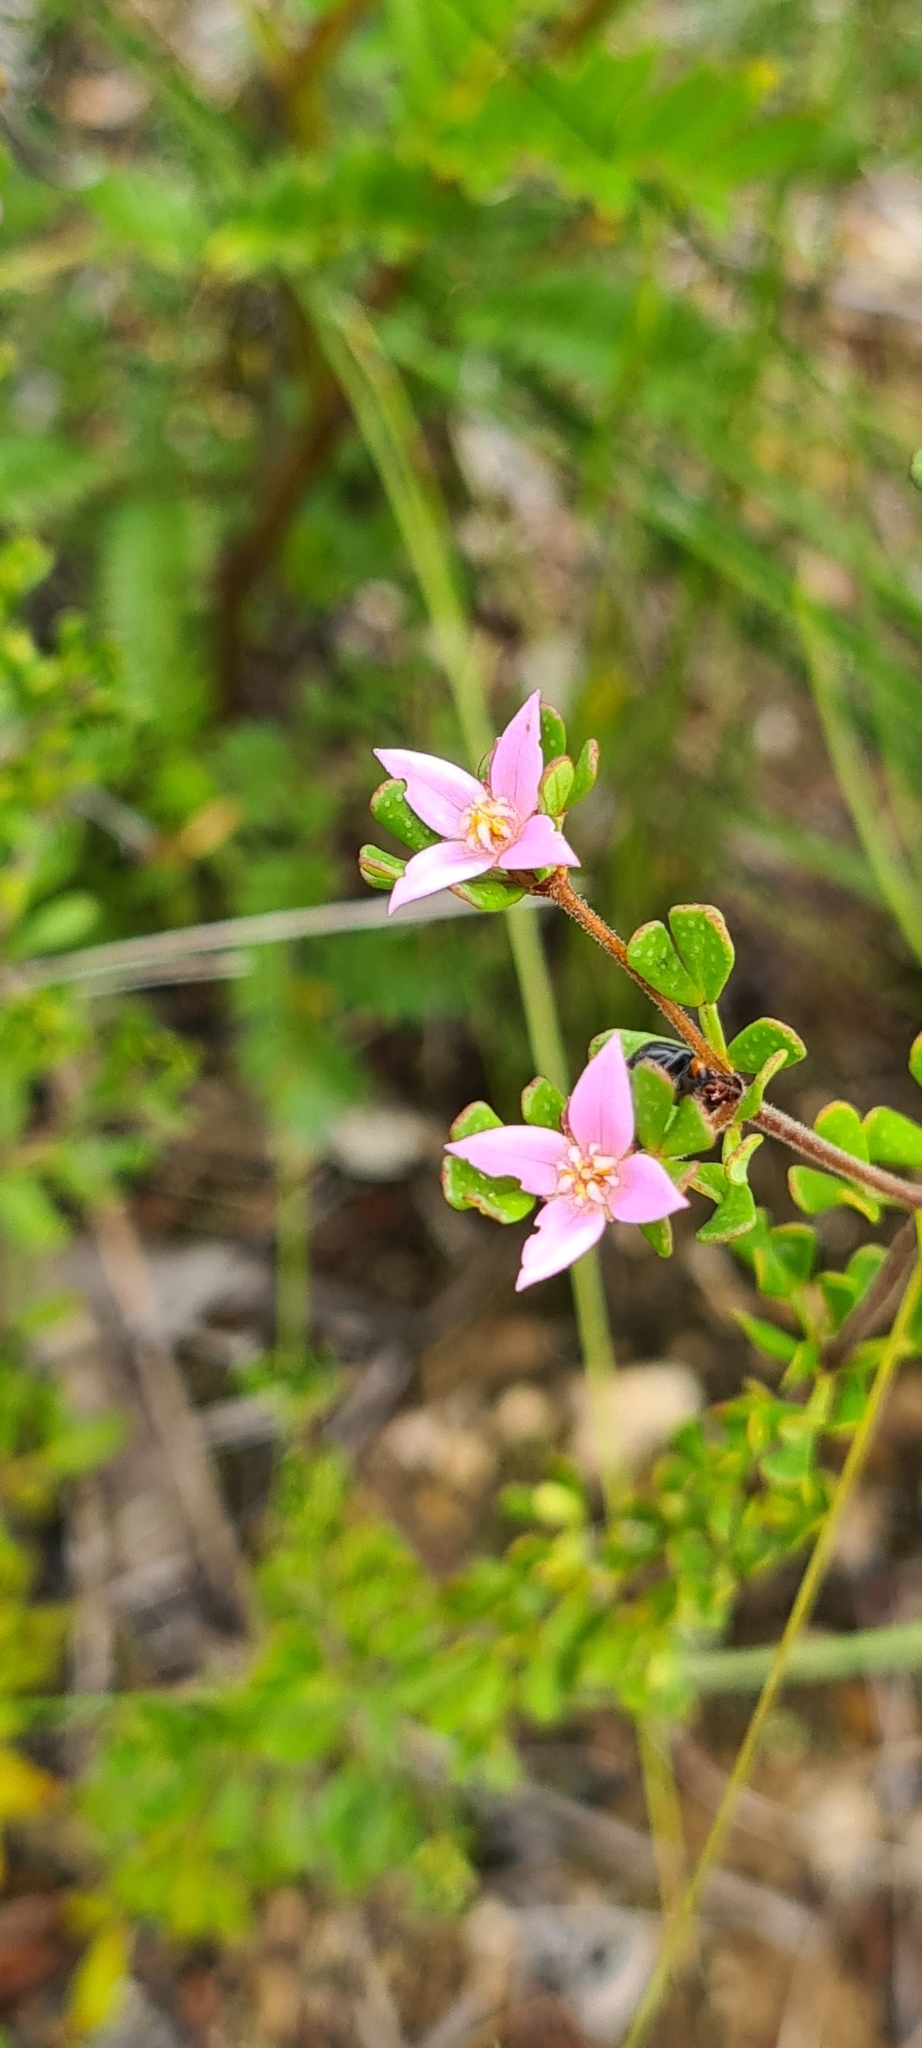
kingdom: Plantae
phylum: Tracheophyta
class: Magnoliopsida
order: Sapindales
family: Rutaceae
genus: Boronia
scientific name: Boronia algida
